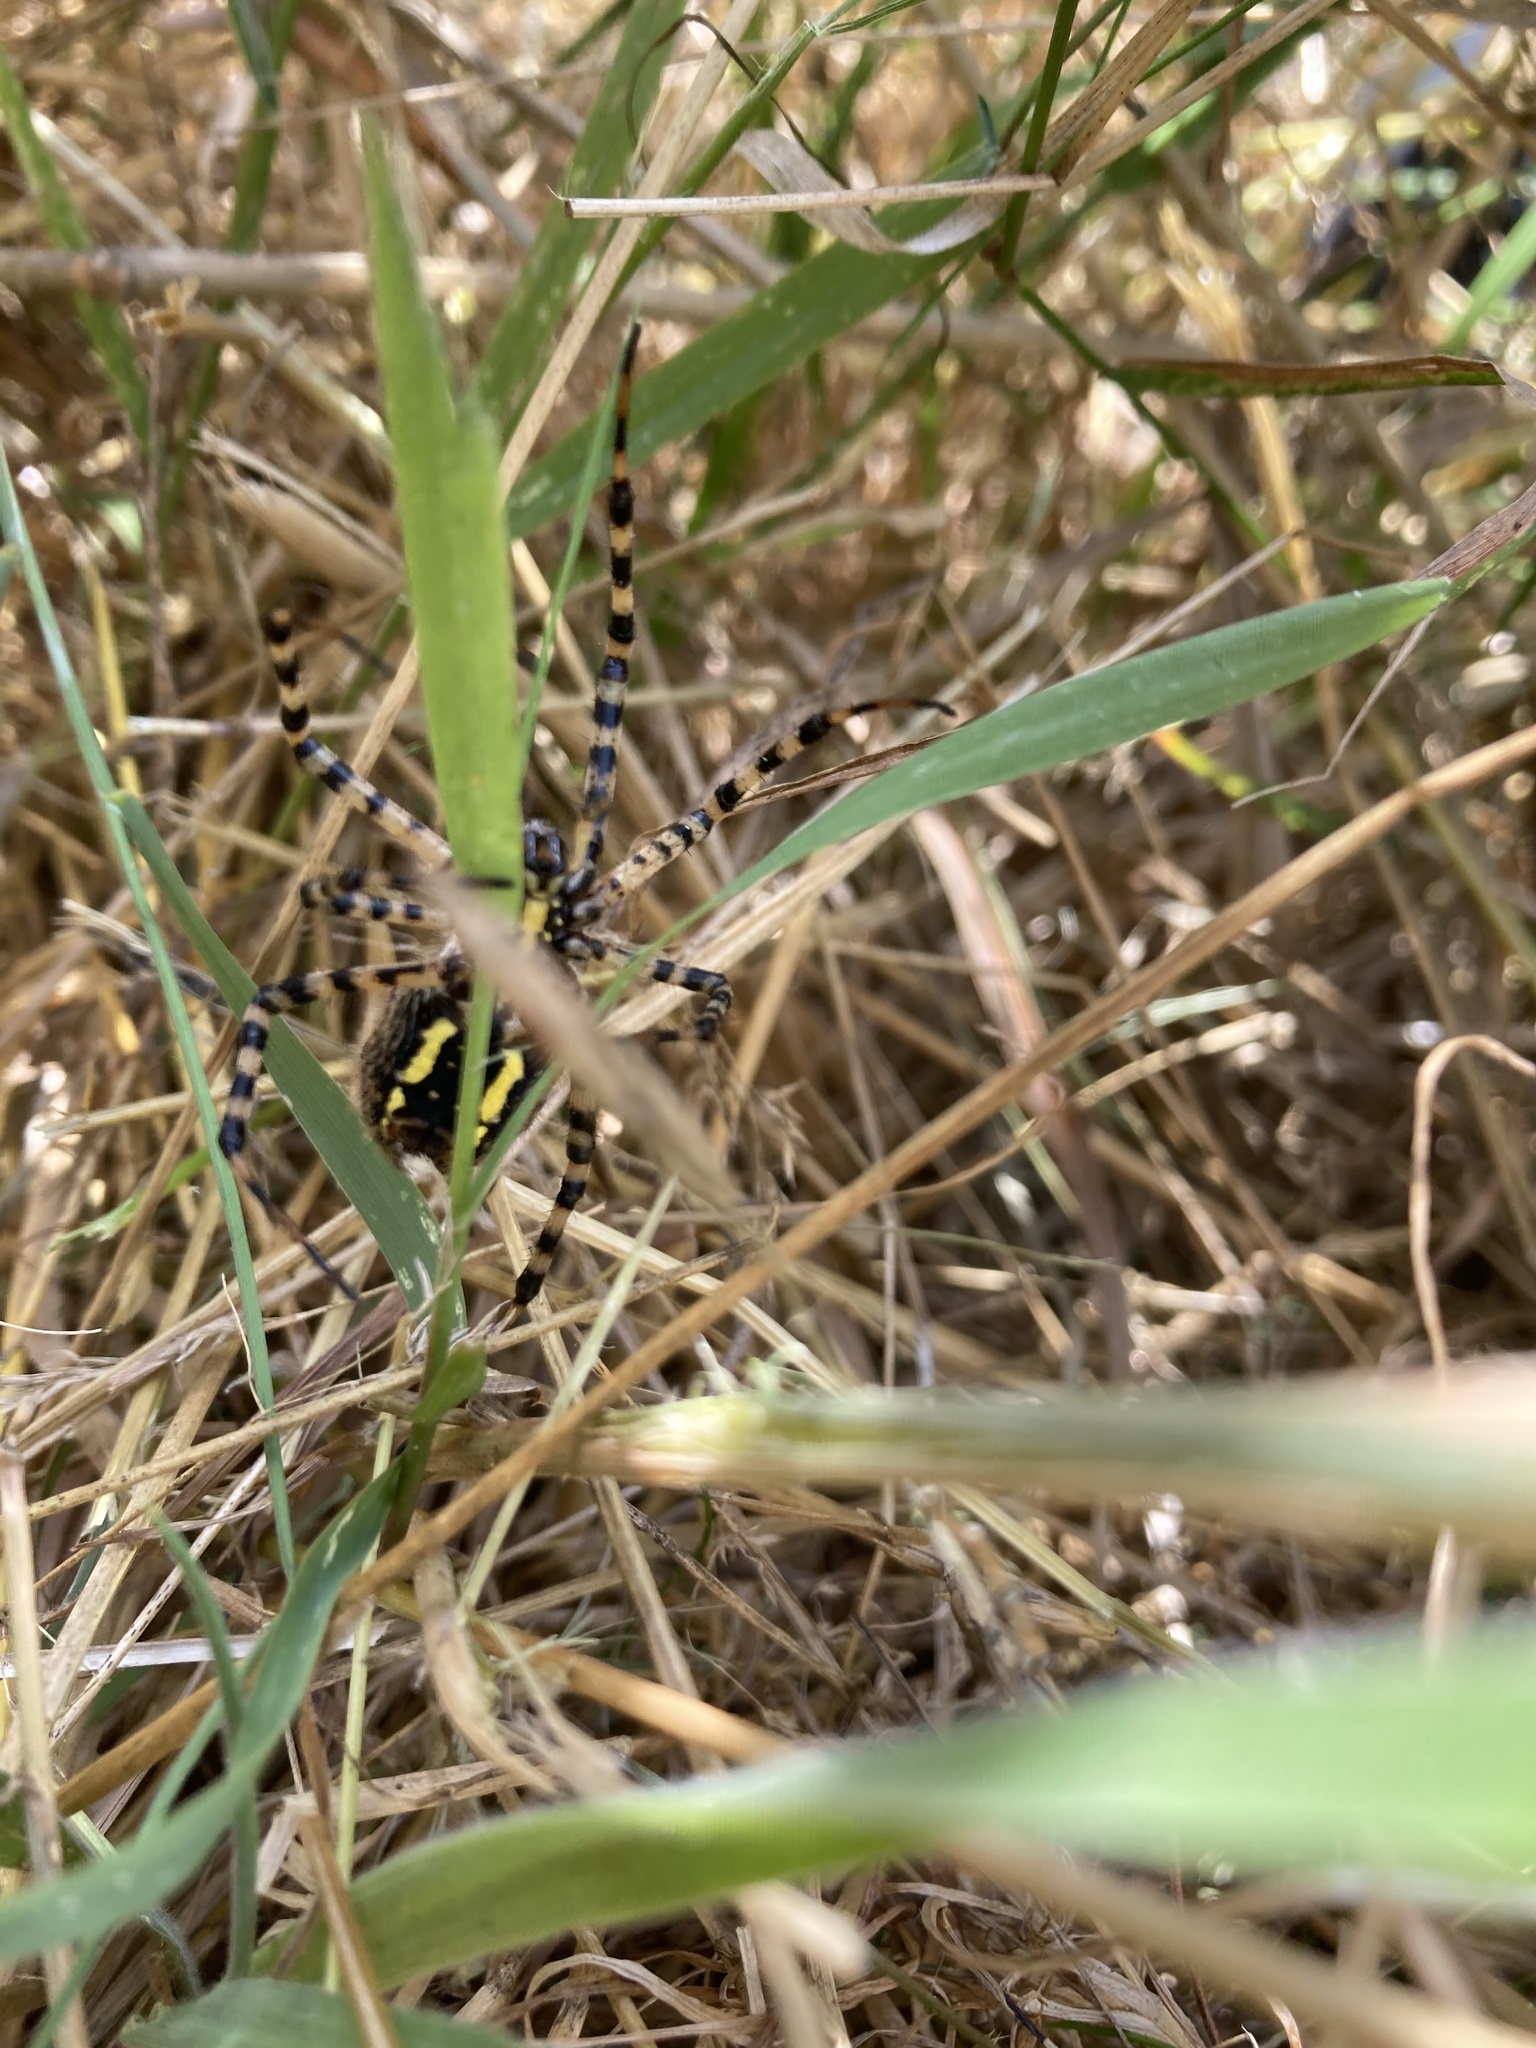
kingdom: Animalia
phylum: Arthropoda
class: Arachnida
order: Araneae
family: Araneidae
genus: Argiope
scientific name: Argiope trifasciata
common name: Banded garden spider
